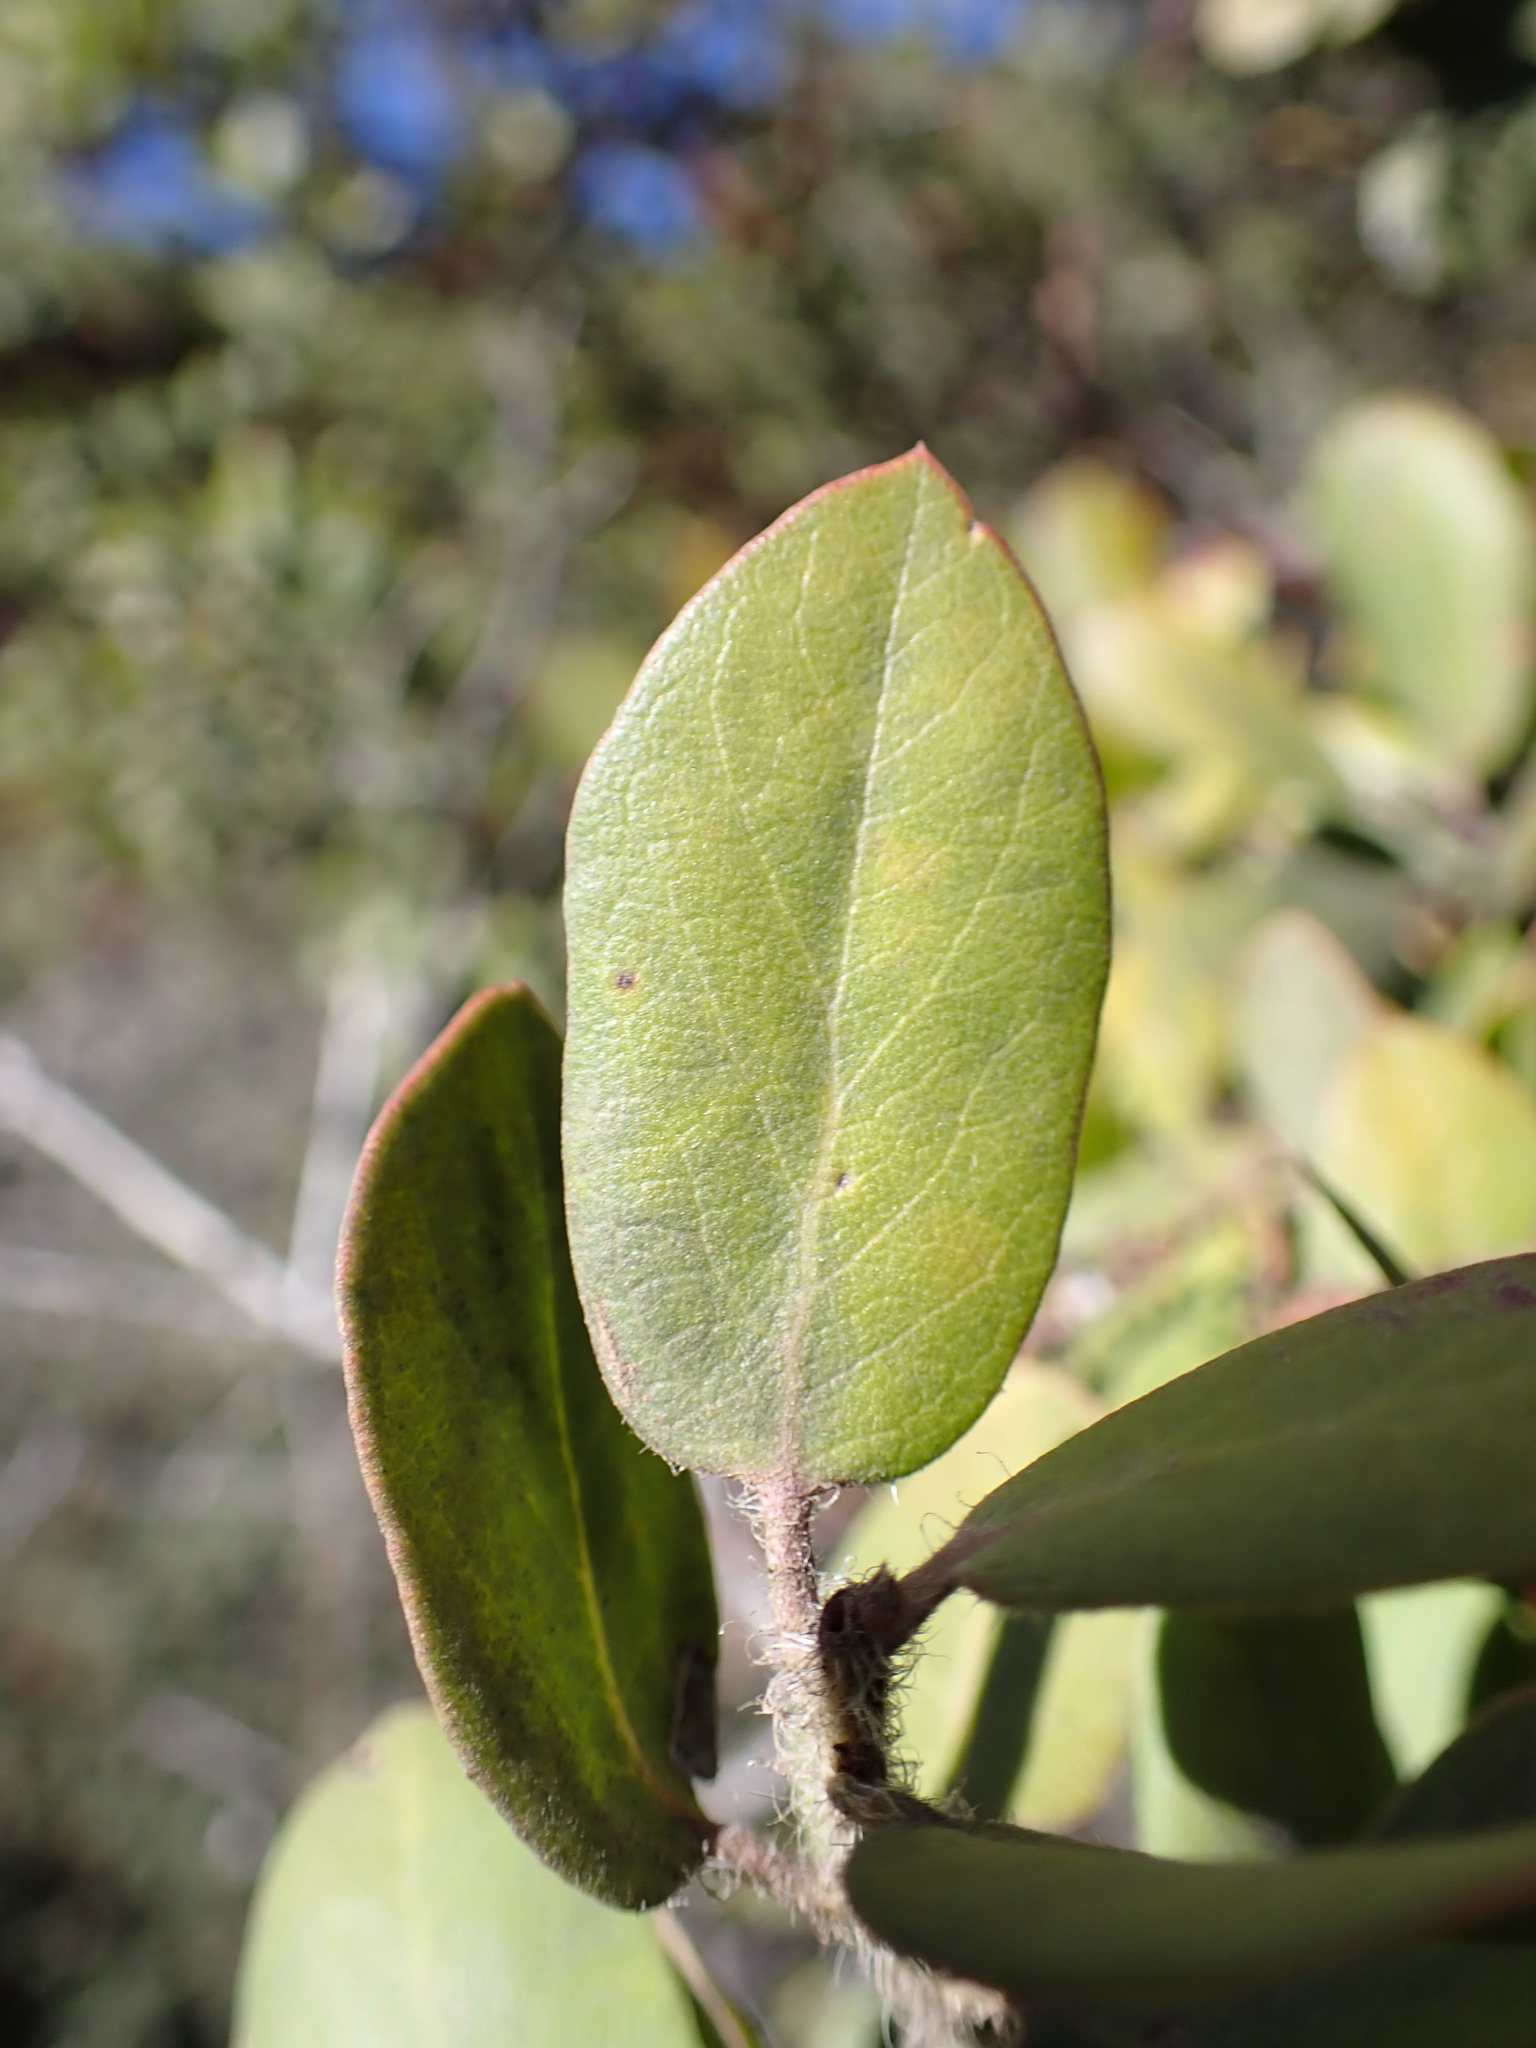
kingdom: Plantae
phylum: Tracheophyta
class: Magnoliopsida
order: Ericales
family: Ericaceae
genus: Arctostaphylos
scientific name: Arctostaphylos crustacea
